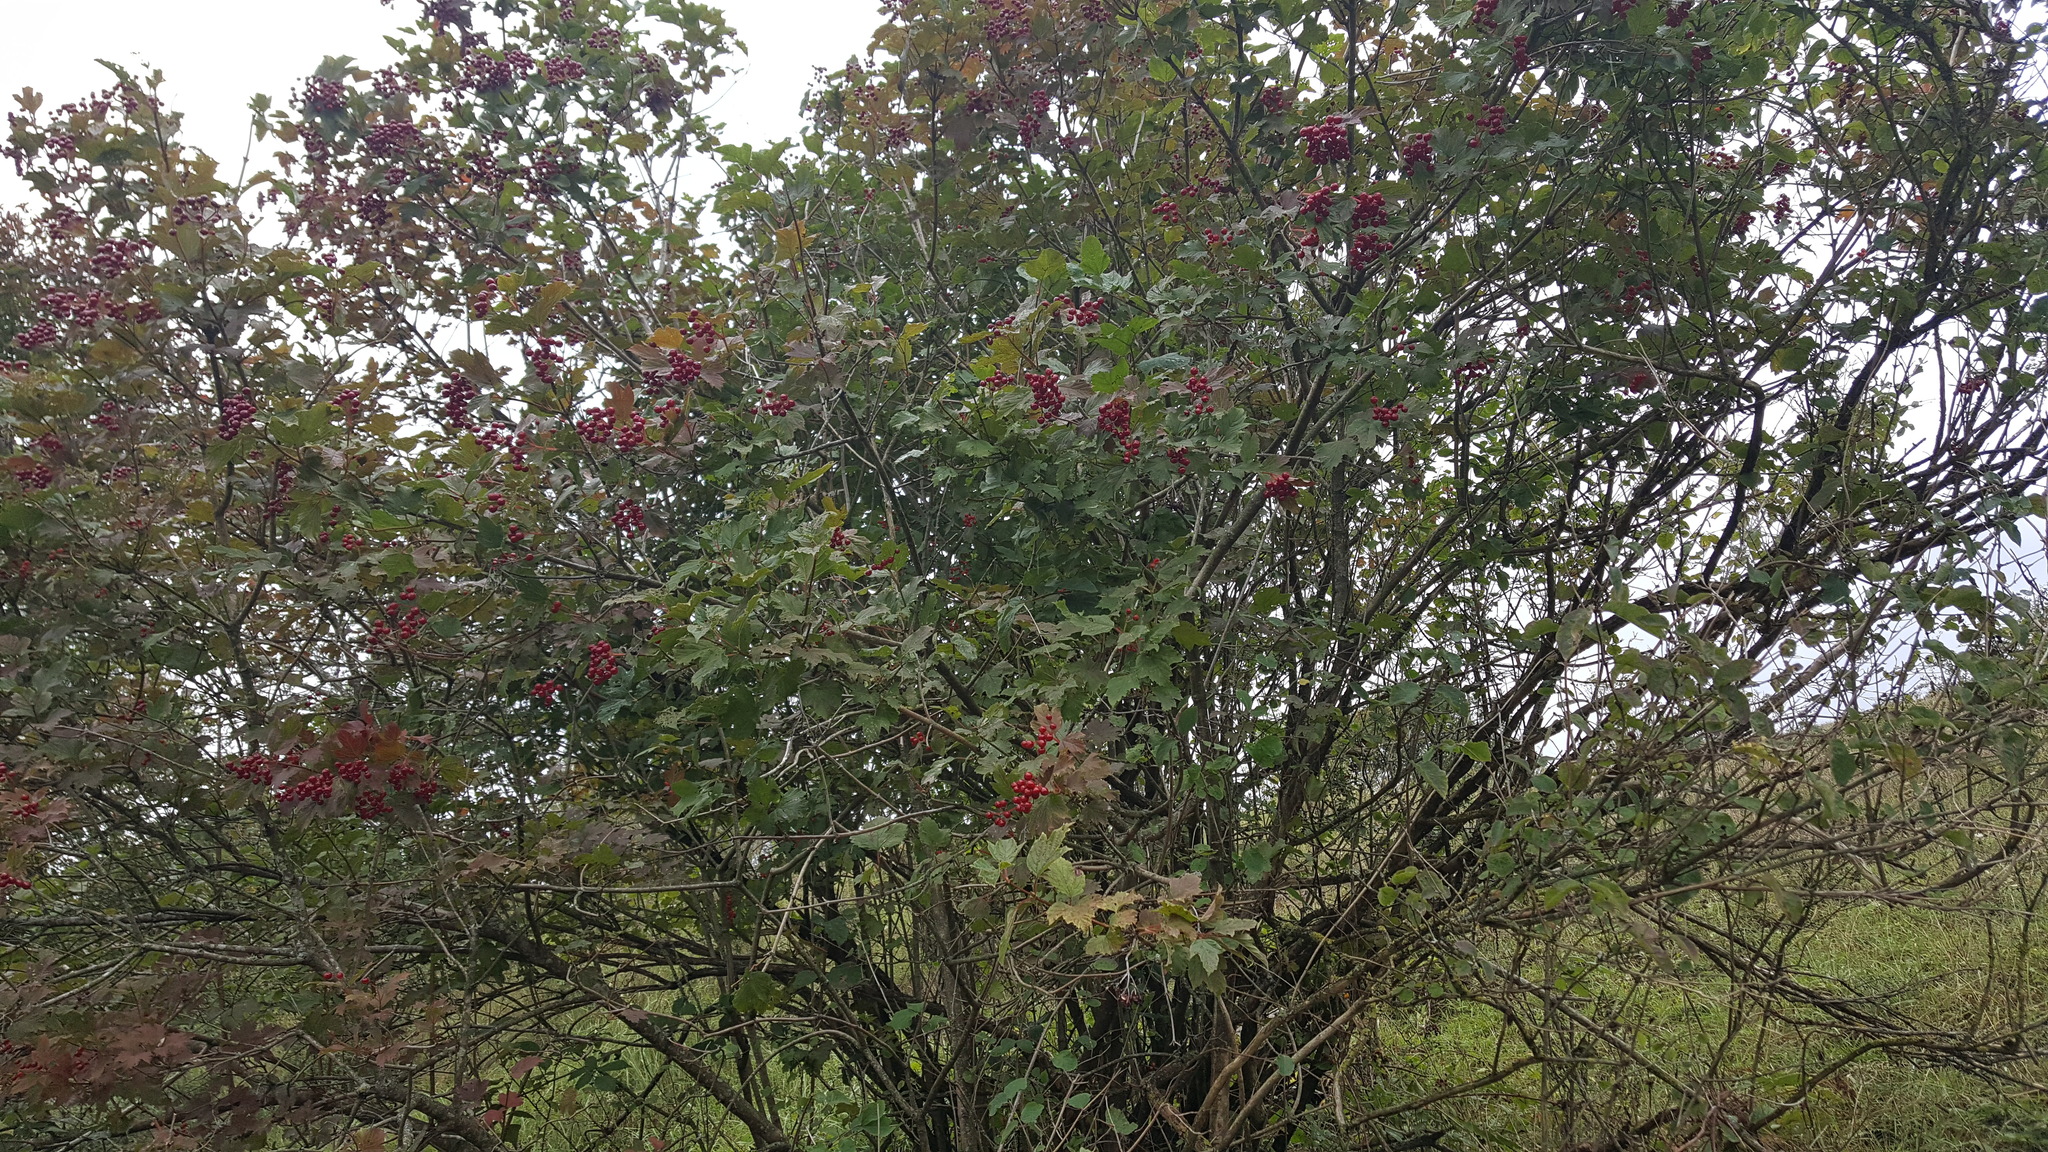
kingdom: Plantae
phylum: Tracheophyta
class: Magnoliopsida
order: Dipsacales
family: Viburnaceae
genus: Viburnum
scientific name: Viburnum opulus
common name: Guelder-rose
